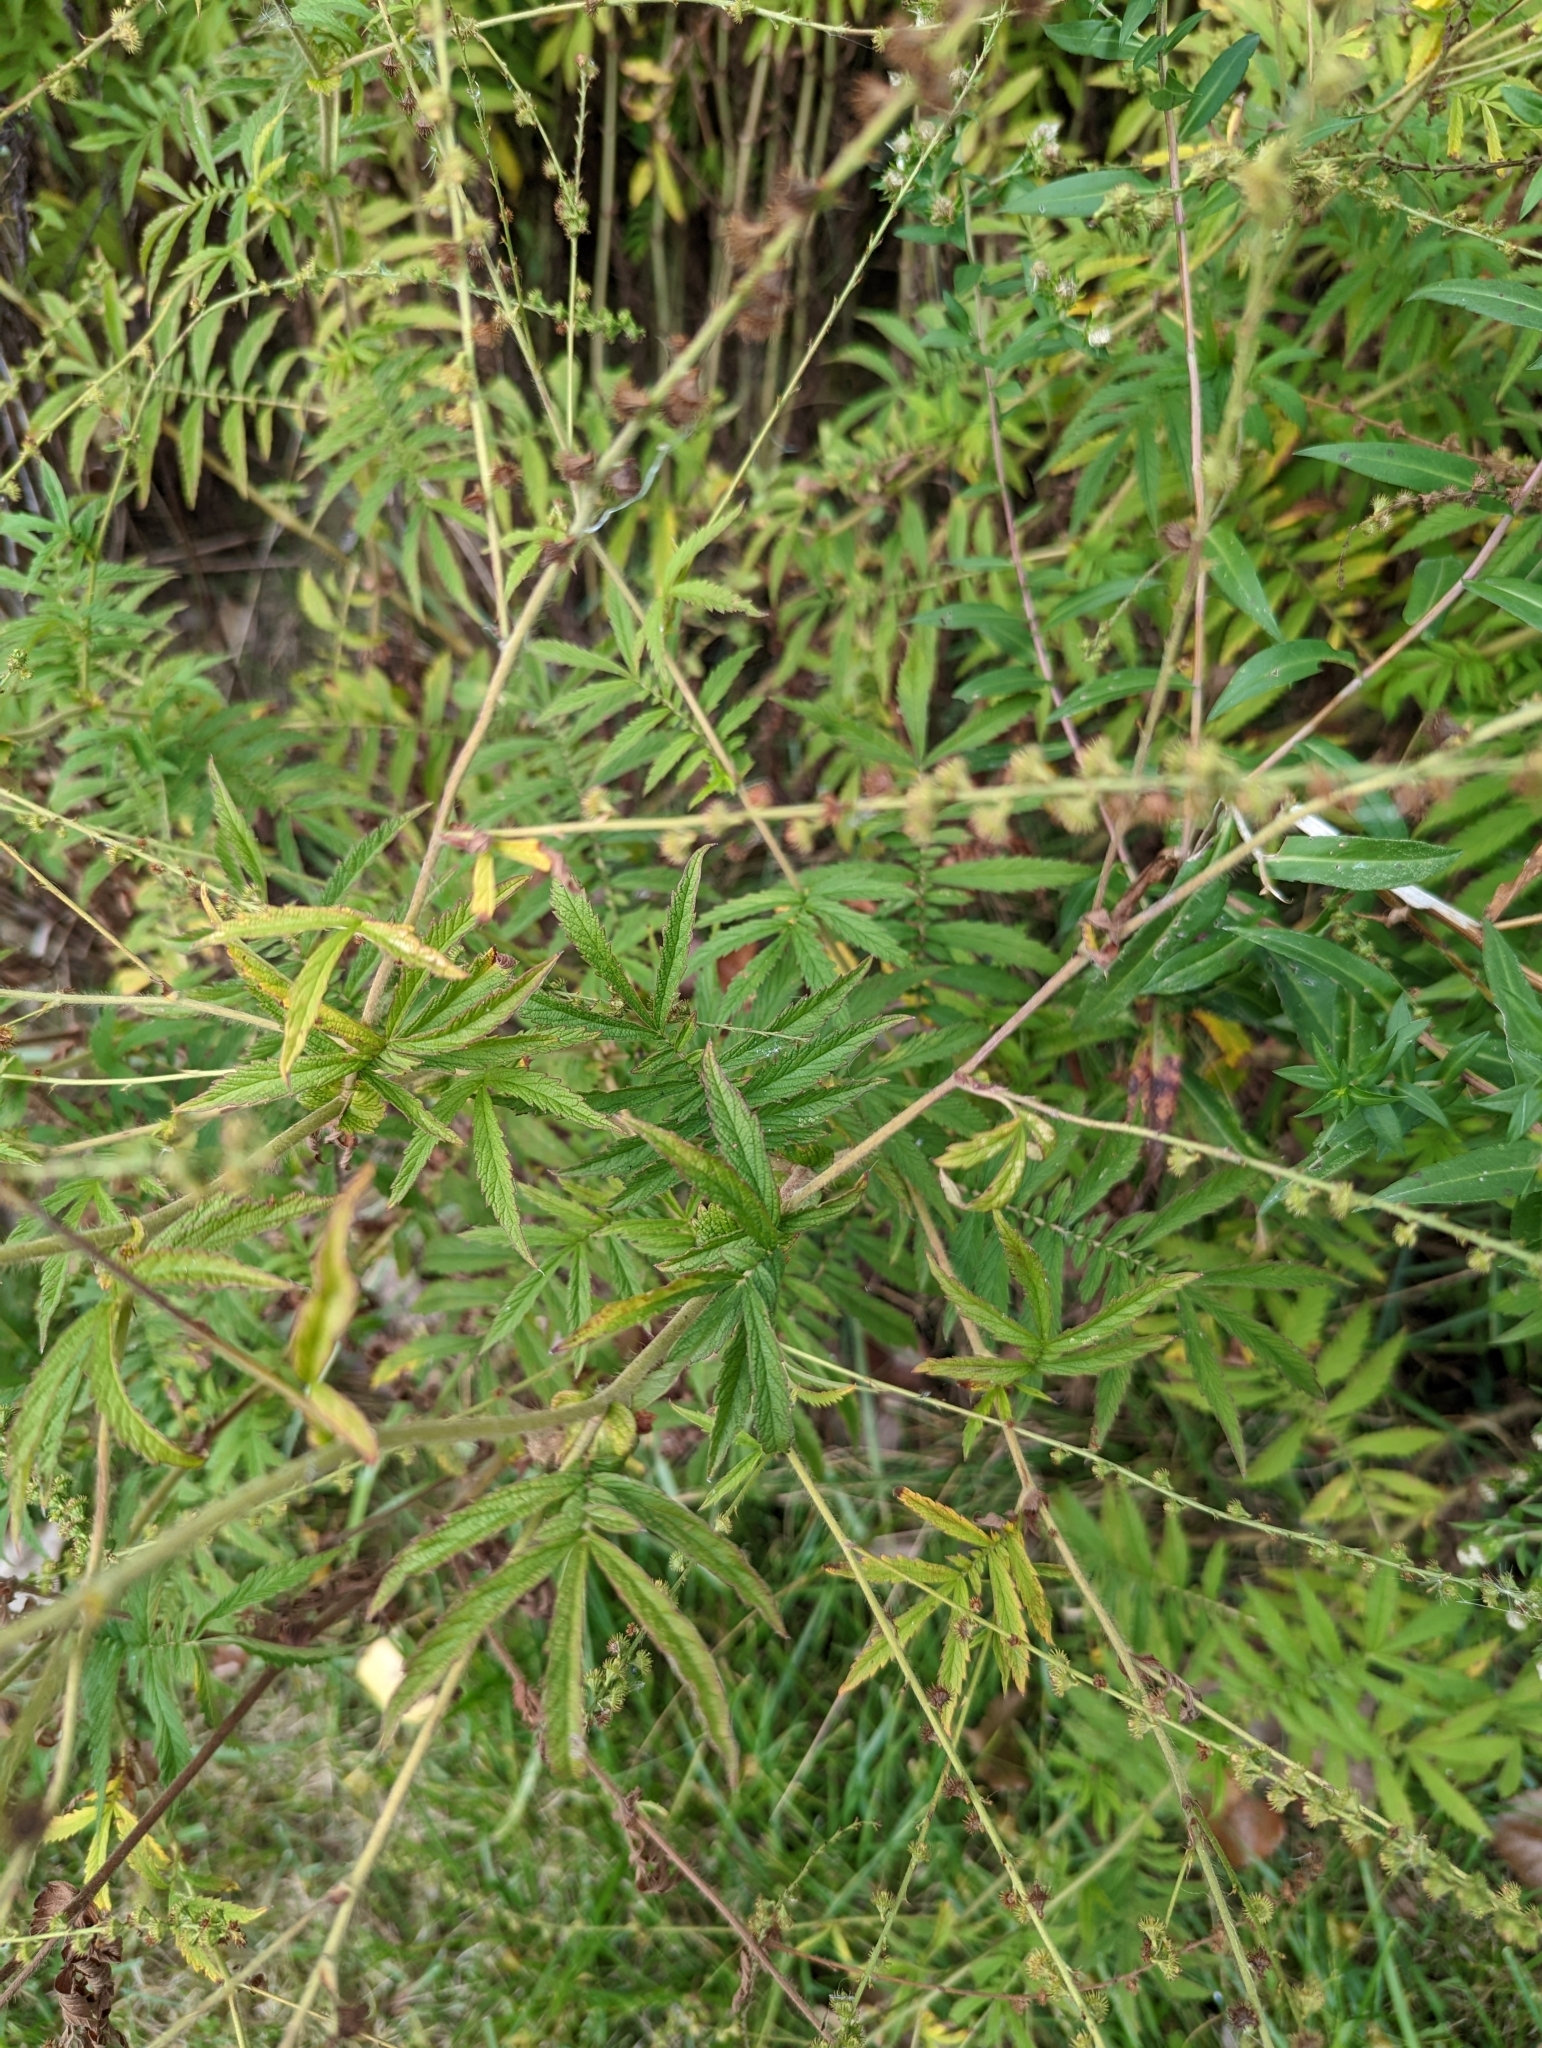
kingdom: Plantae
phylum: Tracheophyta
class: Magnoliopsida
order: Rosales
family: Rosaceae
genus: Agrimonia
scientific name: Agrimonia parviflora
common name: Harvest-lice
